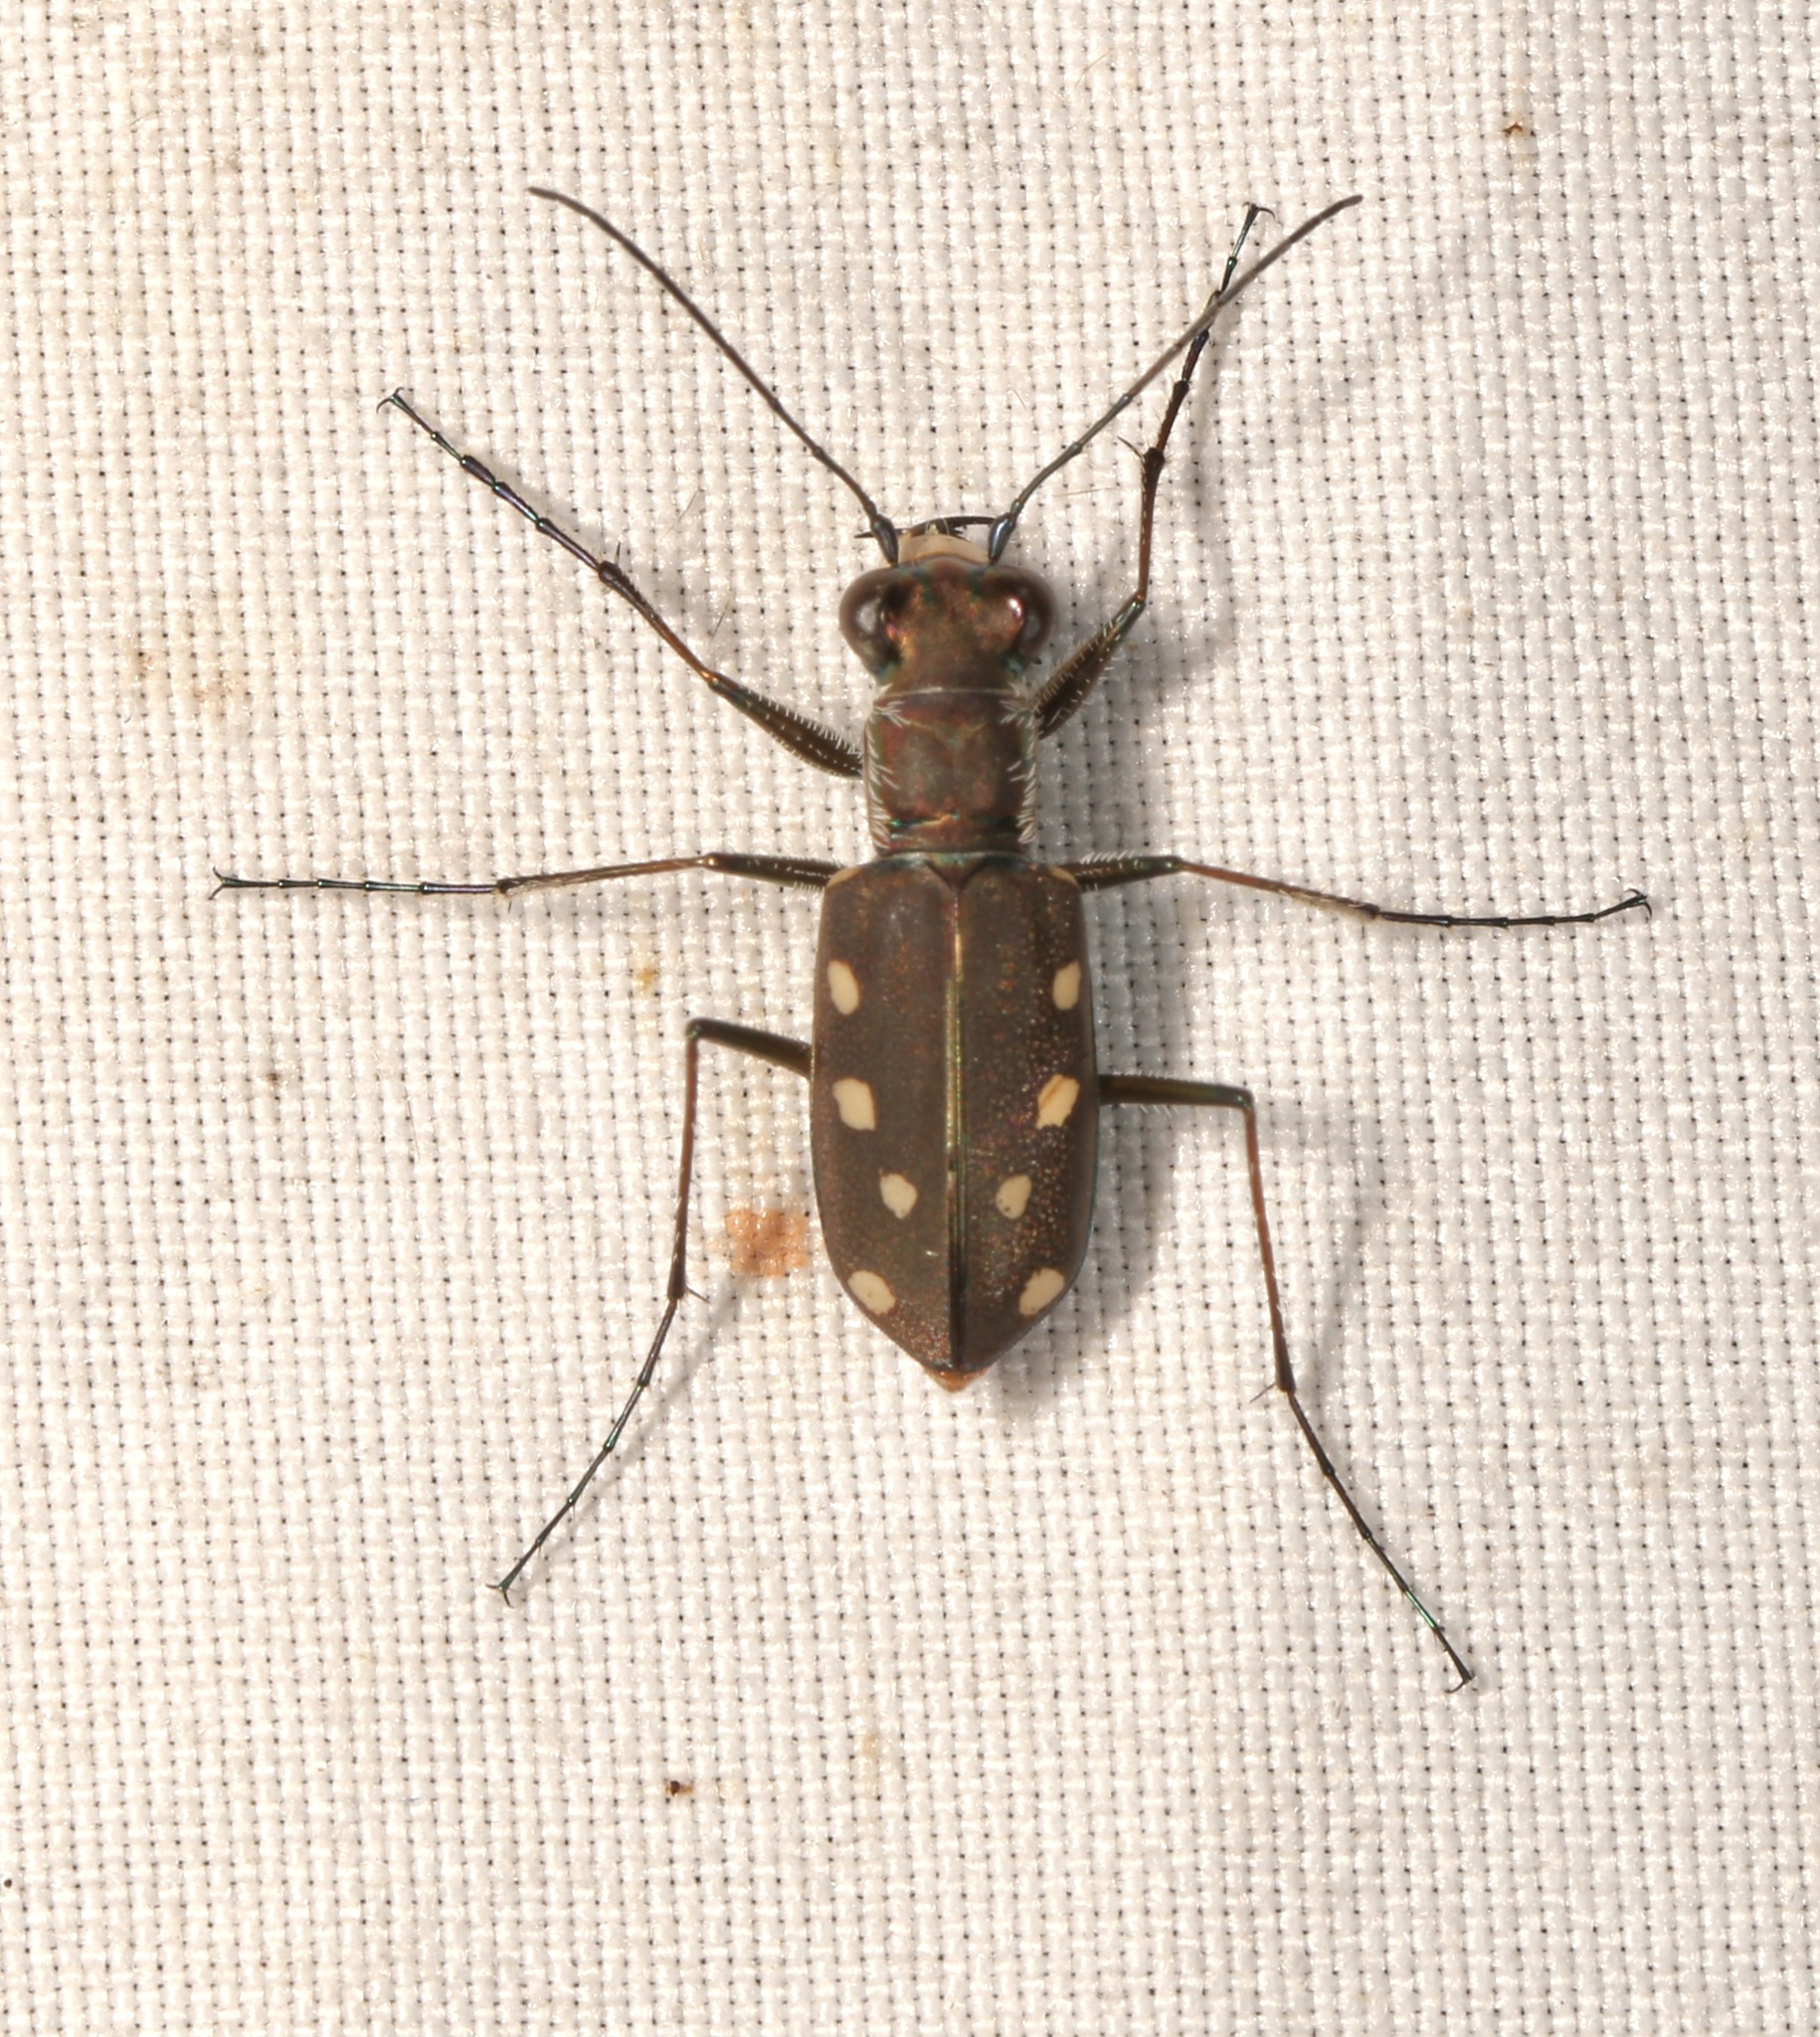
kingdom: Animalia
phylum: Arthropoda
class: Insecta
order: Coleoptera
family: Carabidae
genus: Cicindela
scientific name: Cicindela ocellata
